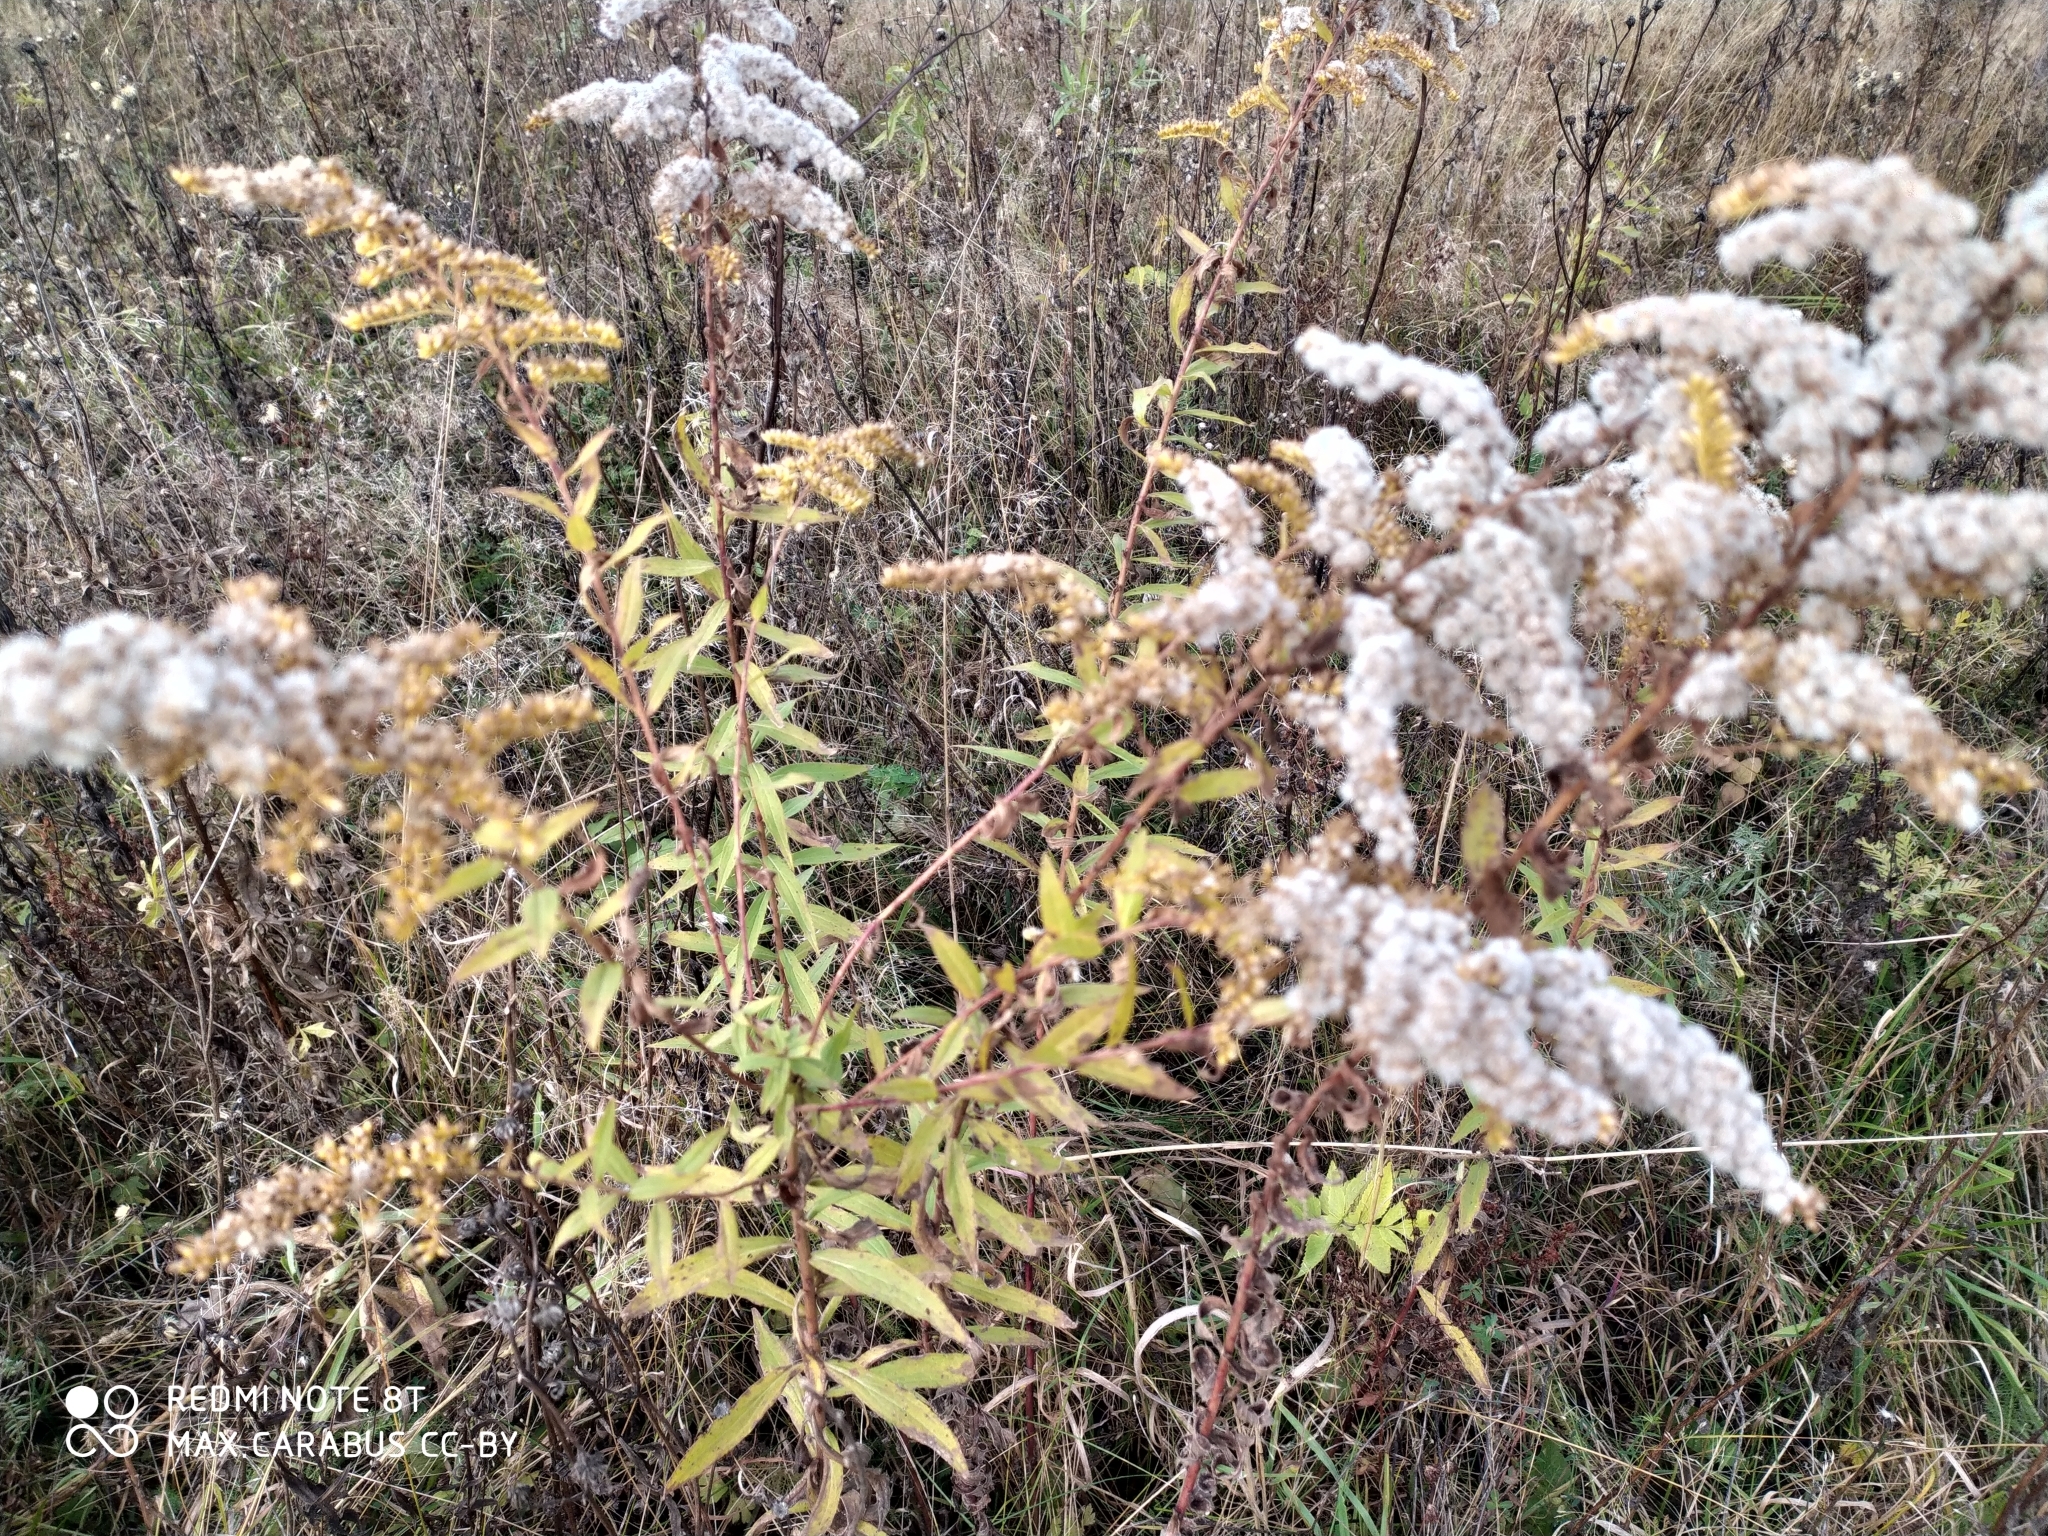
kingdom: Plantae
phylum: Tracheophyta
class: Magnoliopsida
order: Asterales
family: Asteraceae
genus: Solidago
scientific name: Solidago canadensis
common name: Canada goldenrod
